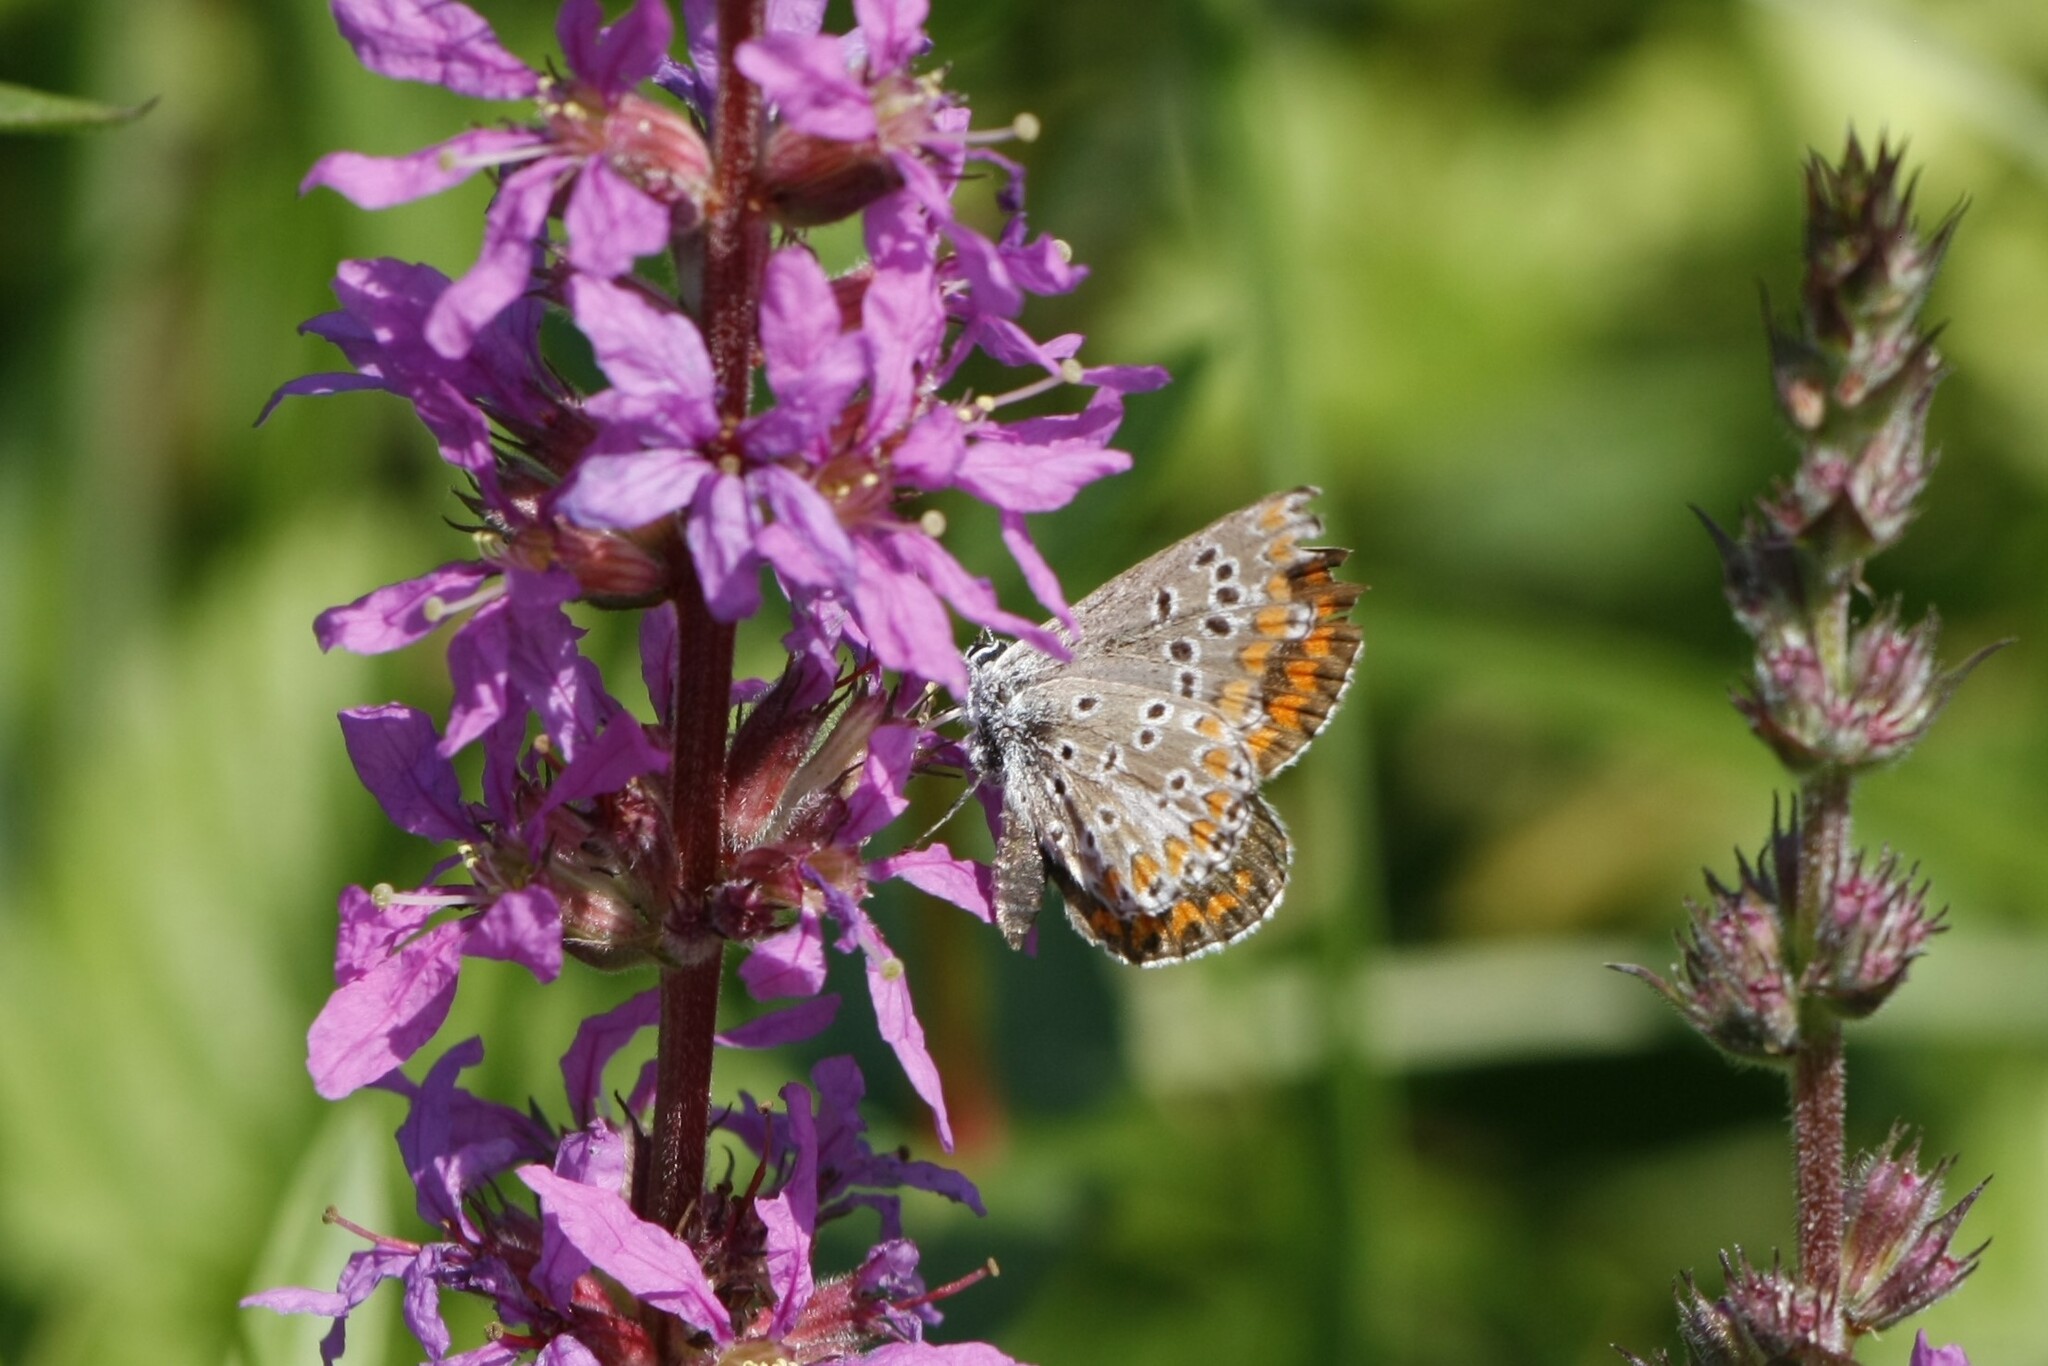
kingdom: Animalia
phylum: Arthropoda
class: Insecta
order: Lepidoptera
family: Lycaenidae
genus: Aricia
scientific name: Aricia agestis
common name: Brown argus
